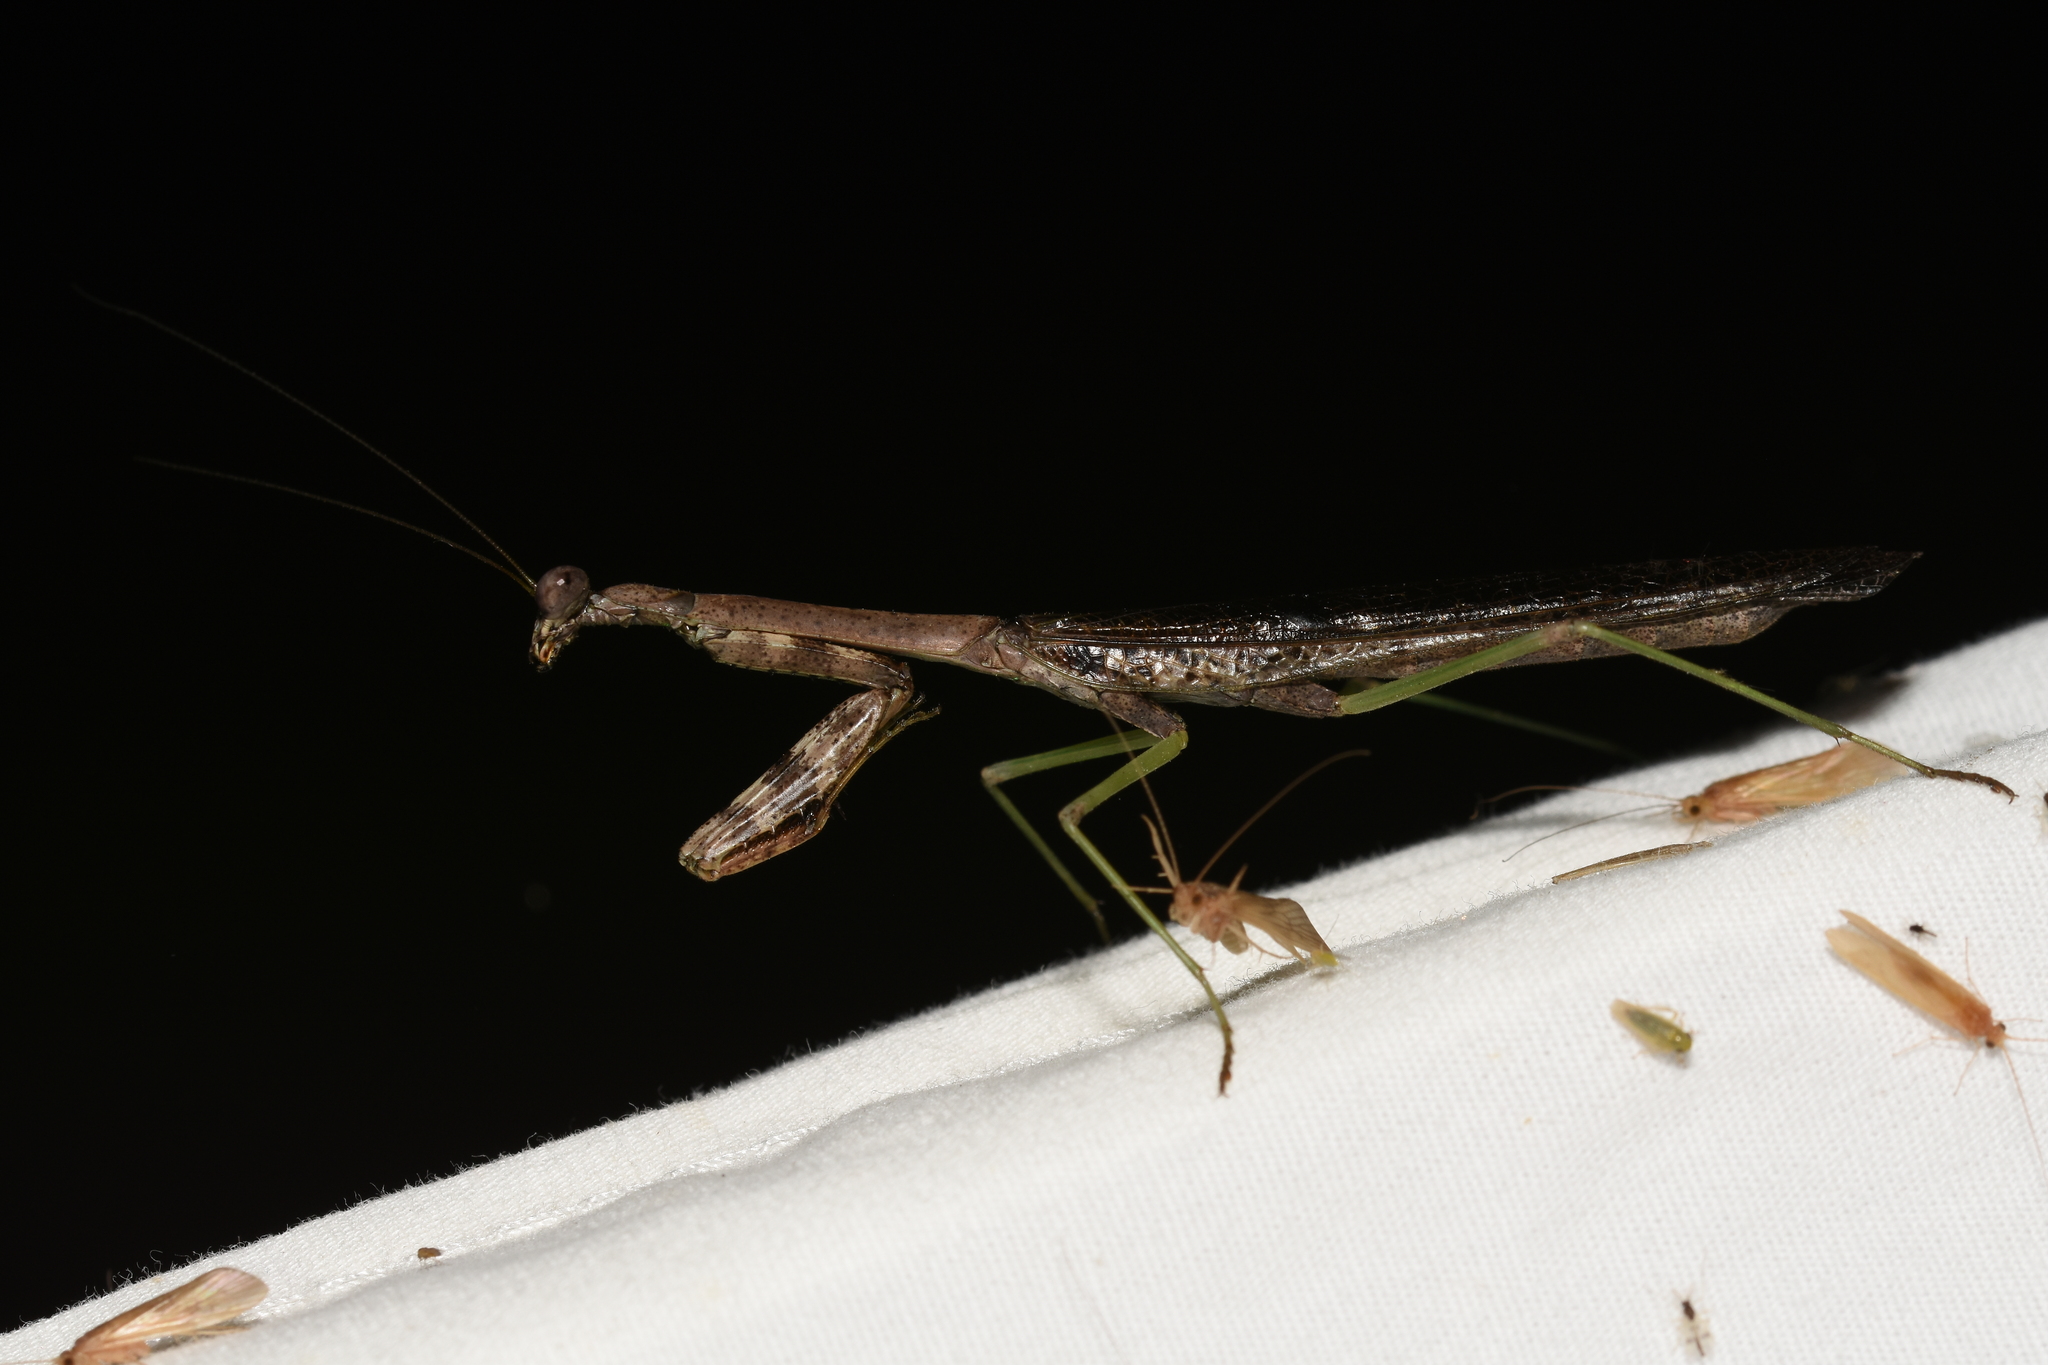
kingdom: Animalia
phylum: Arthropoda
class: Insecta
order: Mantodea
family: Mantidae
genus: Stagmomantis
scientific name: Stagmomantis carolina
